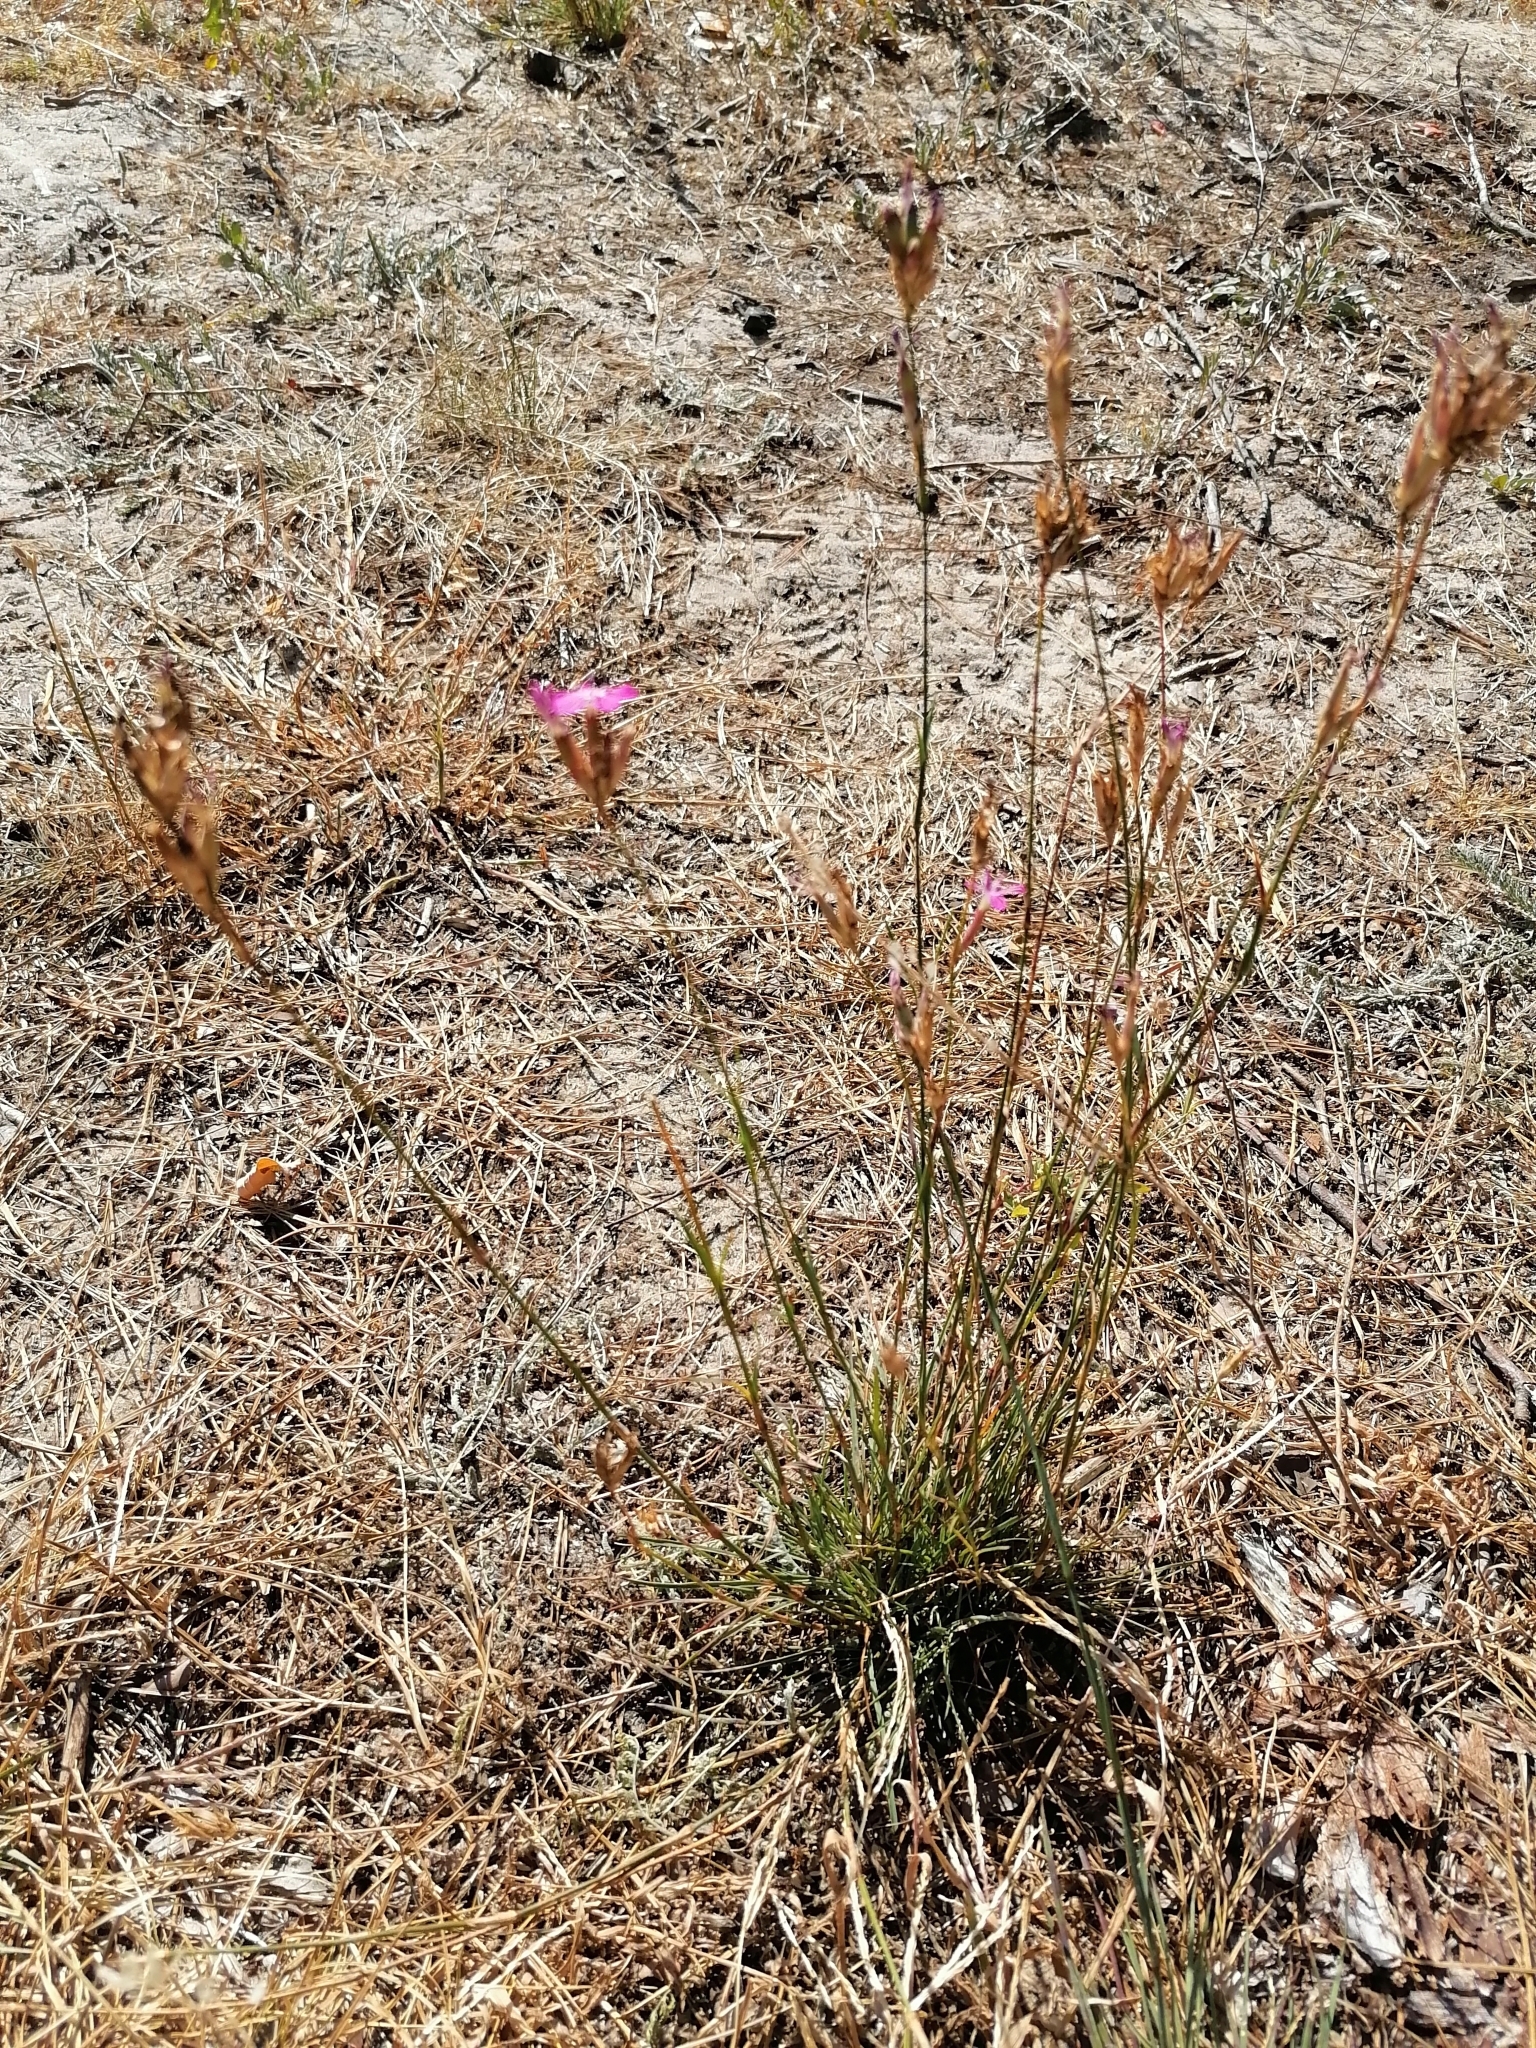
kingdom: Plantae
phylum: Tracheophyta
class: Magnoliopsida
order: Caryophyllales
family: Caryophyllaceae
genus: Dianthus
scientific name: Dianthus borbasii
